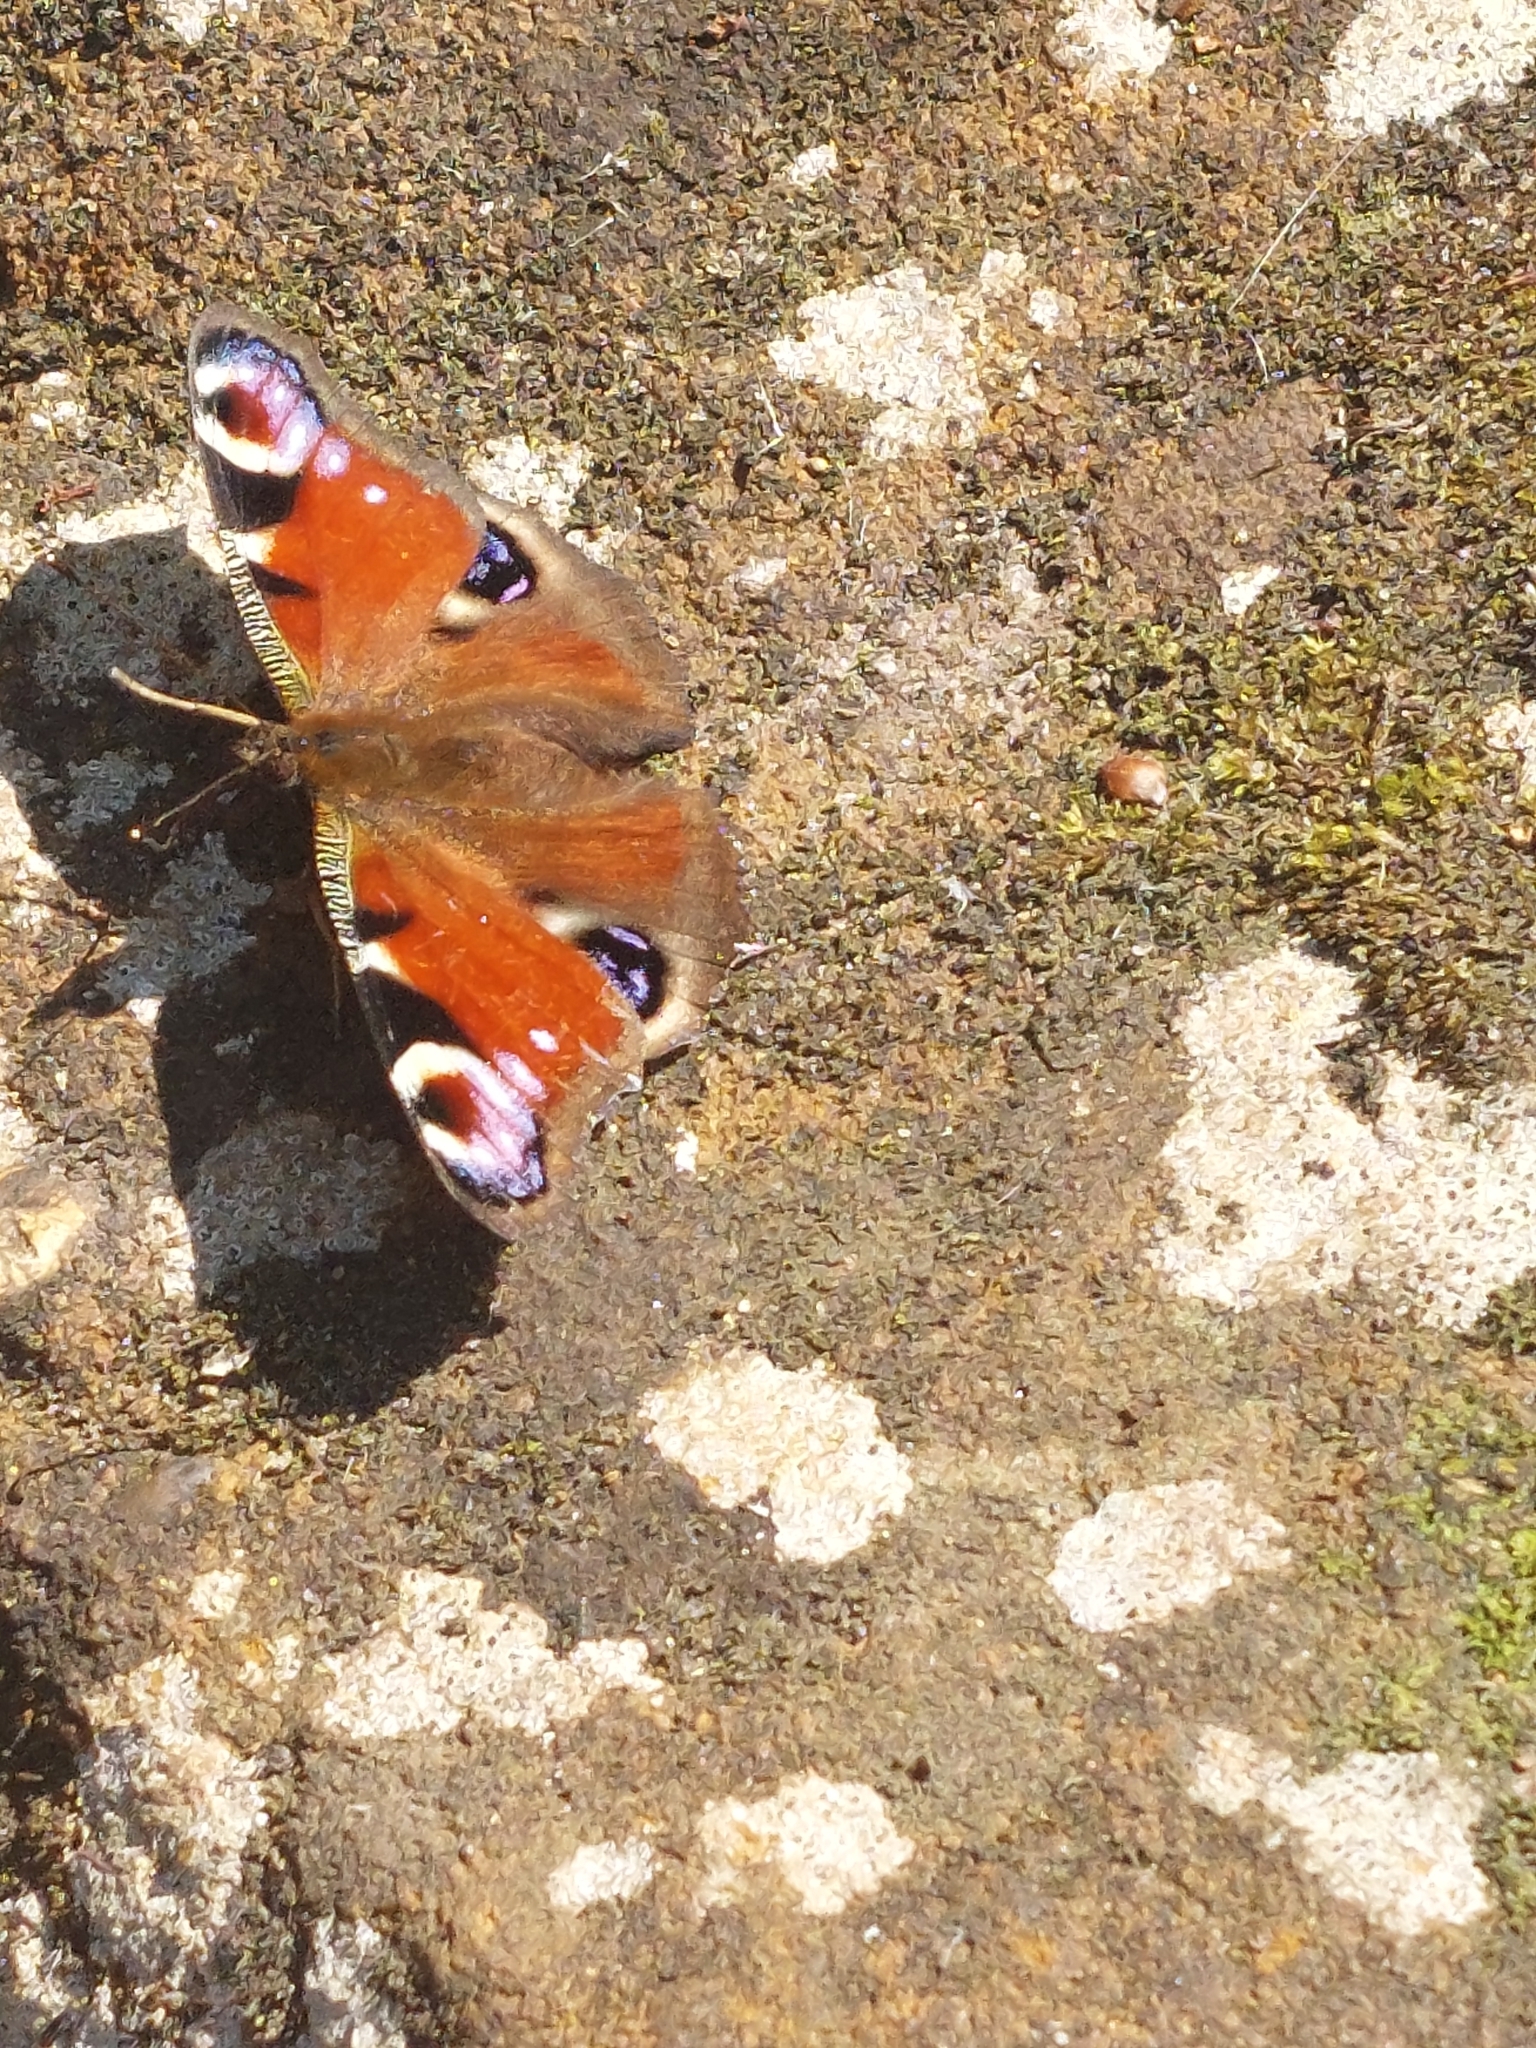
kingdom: Animalia
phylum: Arthropoda
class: Insecta
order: Lepidoptera
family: Nymphalidae
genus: Aglais
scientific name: Aglais io
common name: Peacock
